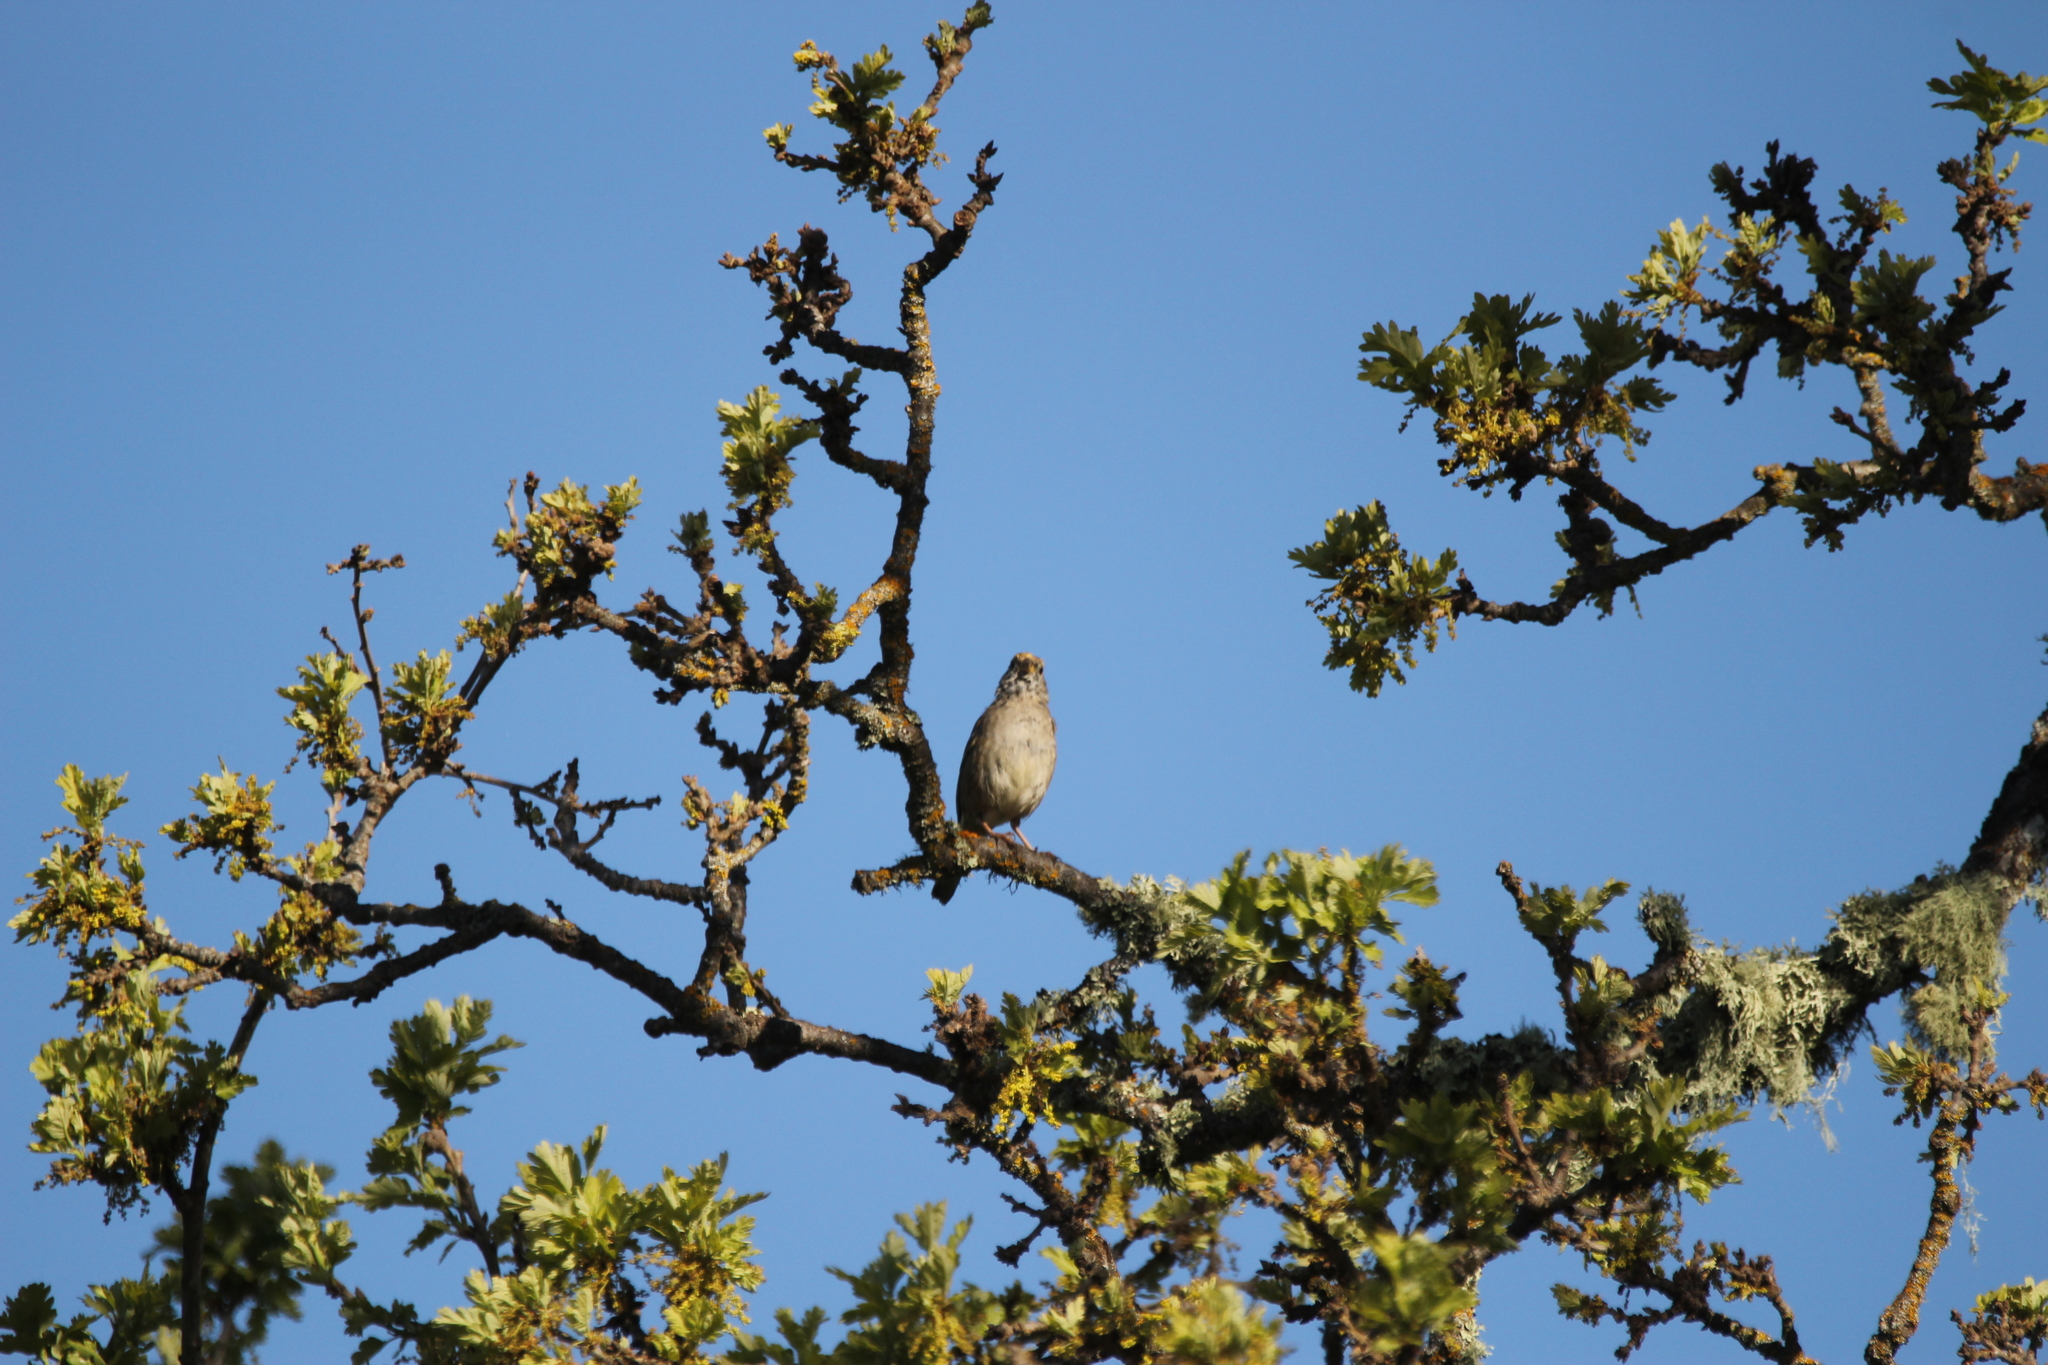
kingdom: Animalia
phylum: Chordata
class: Aves
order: Passeriformes
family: Passerellidae
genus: Zonotrichia
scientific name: Zonotrichia atricapilla
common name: Golden-crowned sparrow
